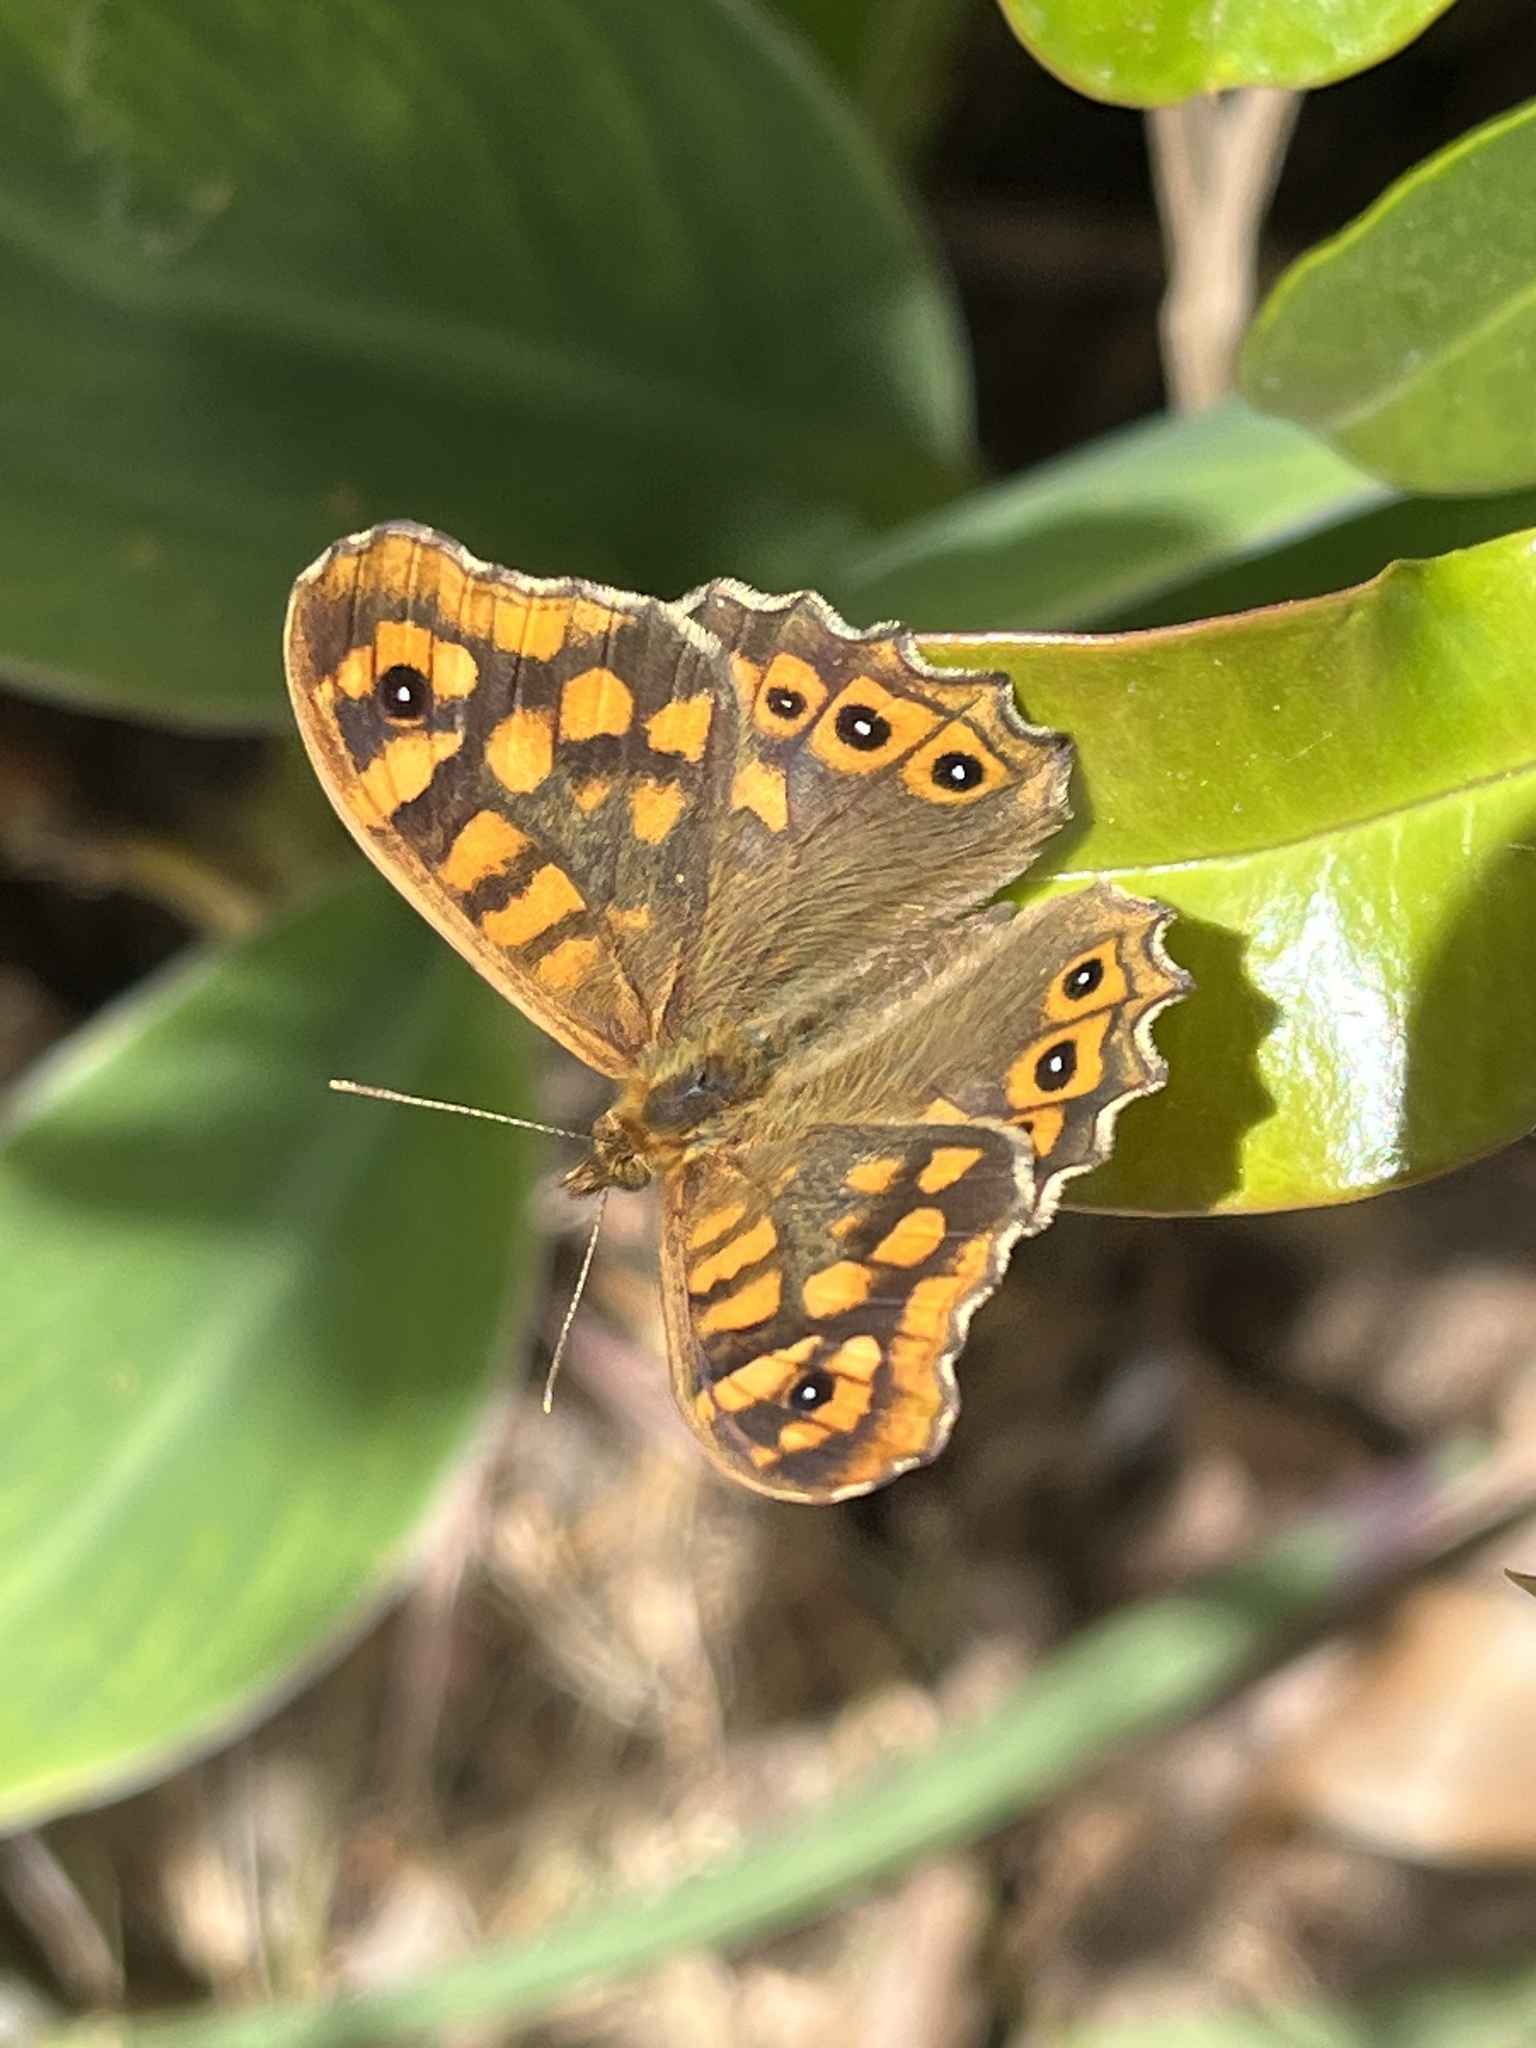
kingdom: Animalia
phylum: Arthropoda
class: Insecta
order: Lepidoptera
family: Nymphalidae
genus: Pararge
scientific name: Pararge aegeria
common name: Speckled wood
